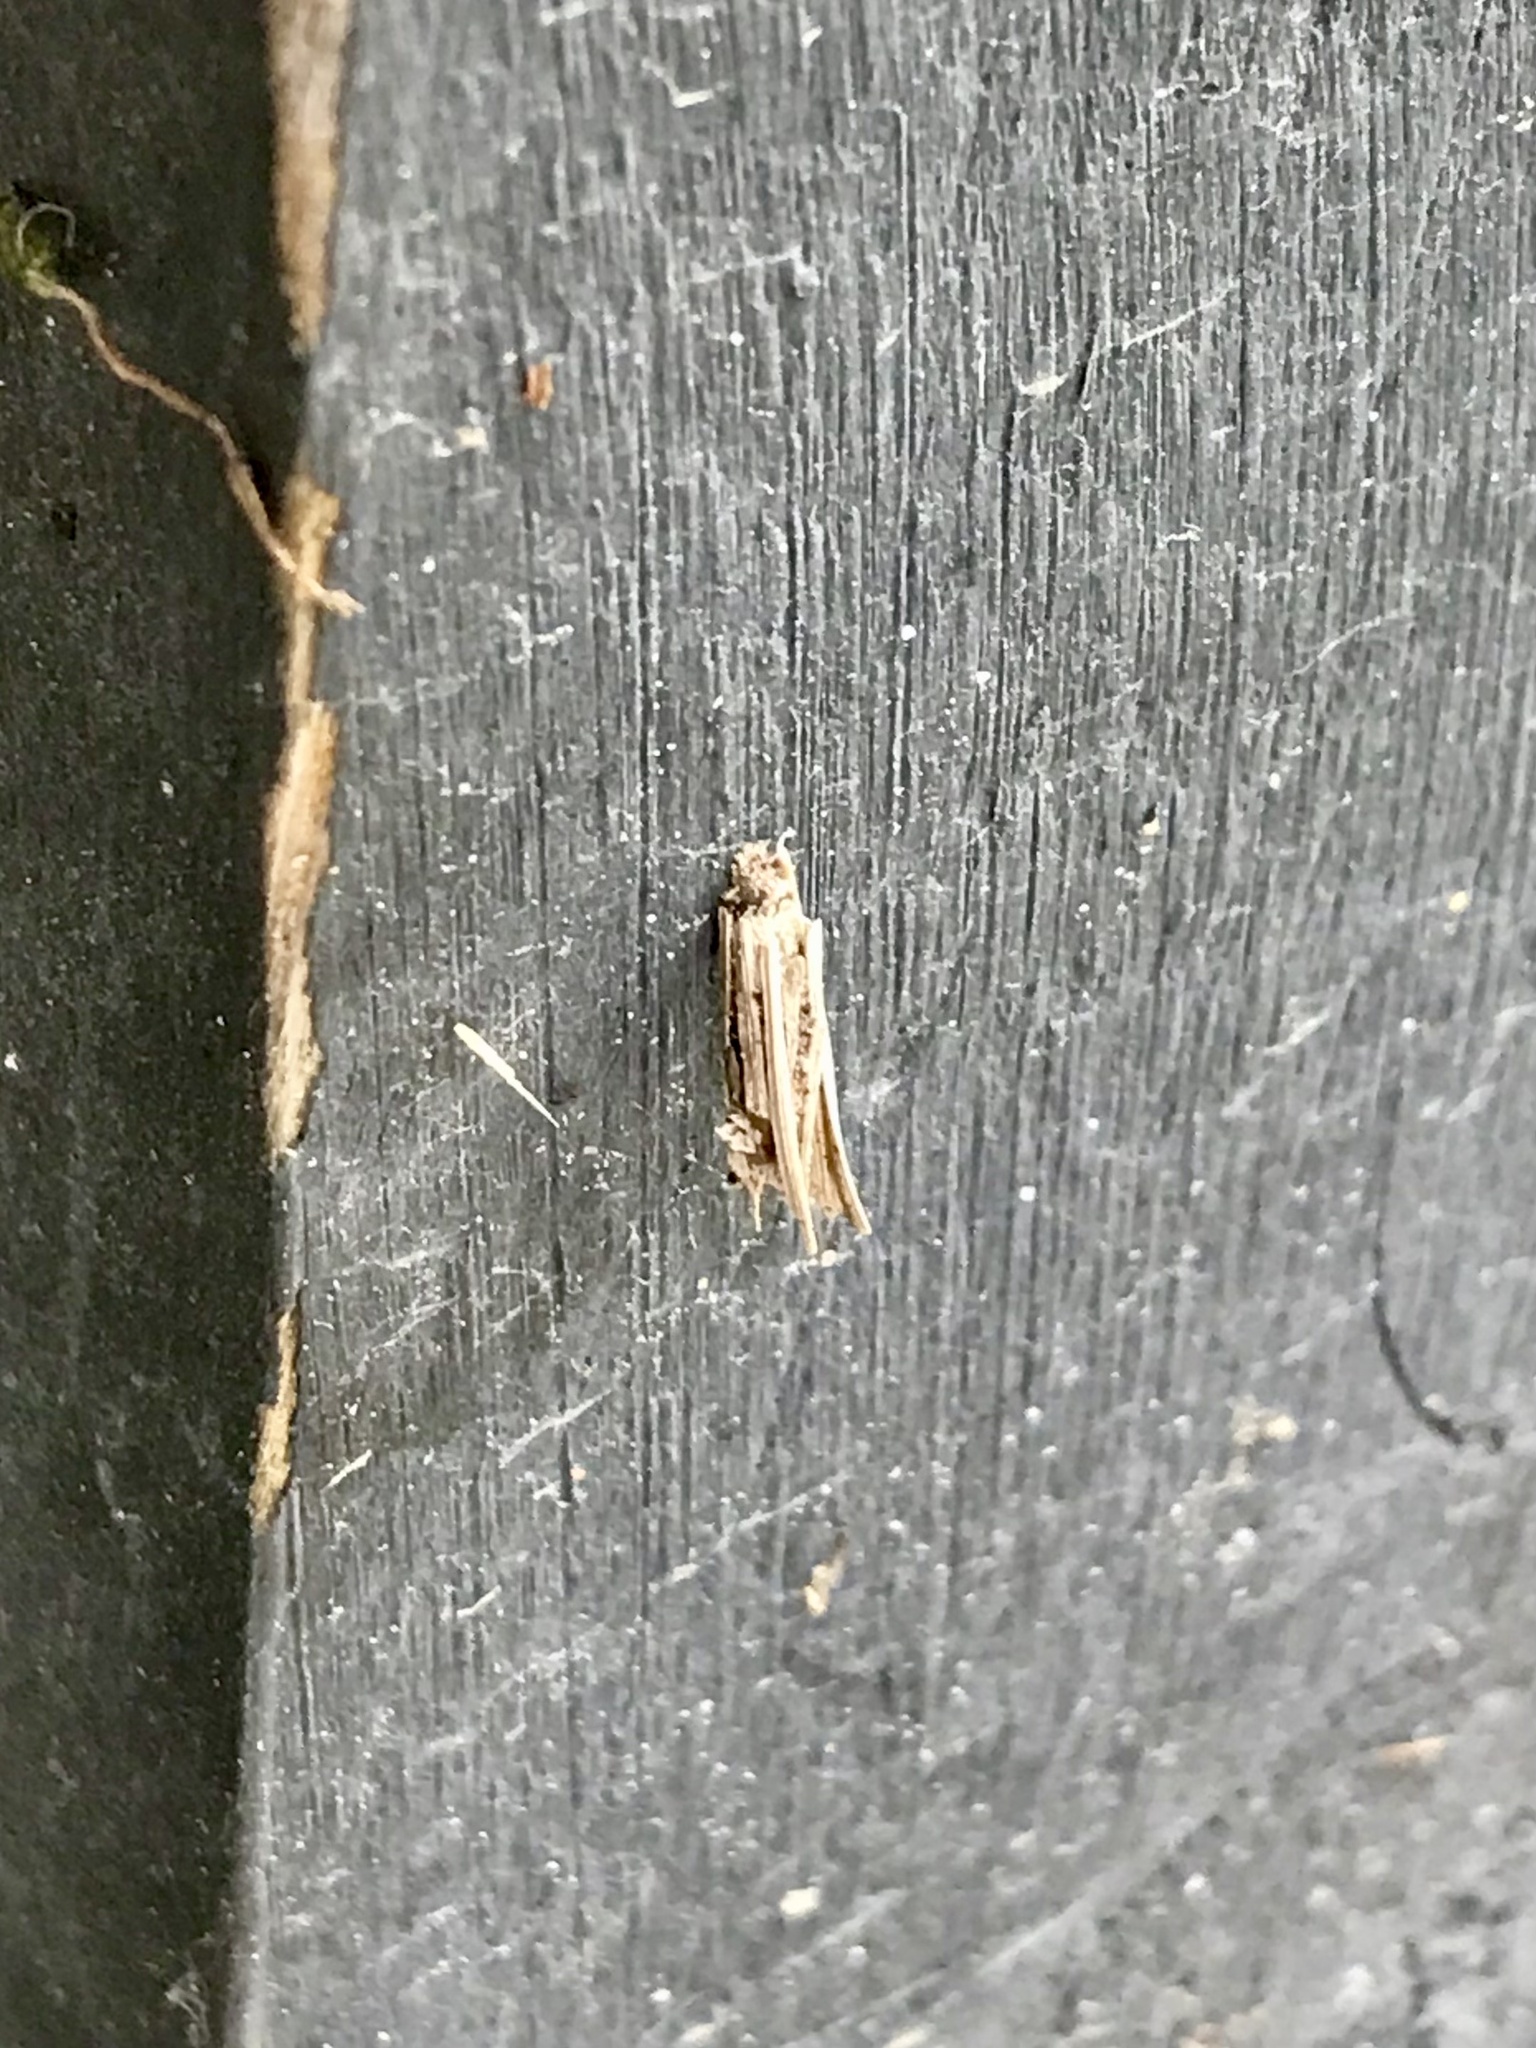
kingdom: Animalia
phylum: Arthropoda
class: Insecta
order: Lepidoptera
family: Psychidae
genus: Psyche
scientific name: Psyche casta
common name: Common sweep
